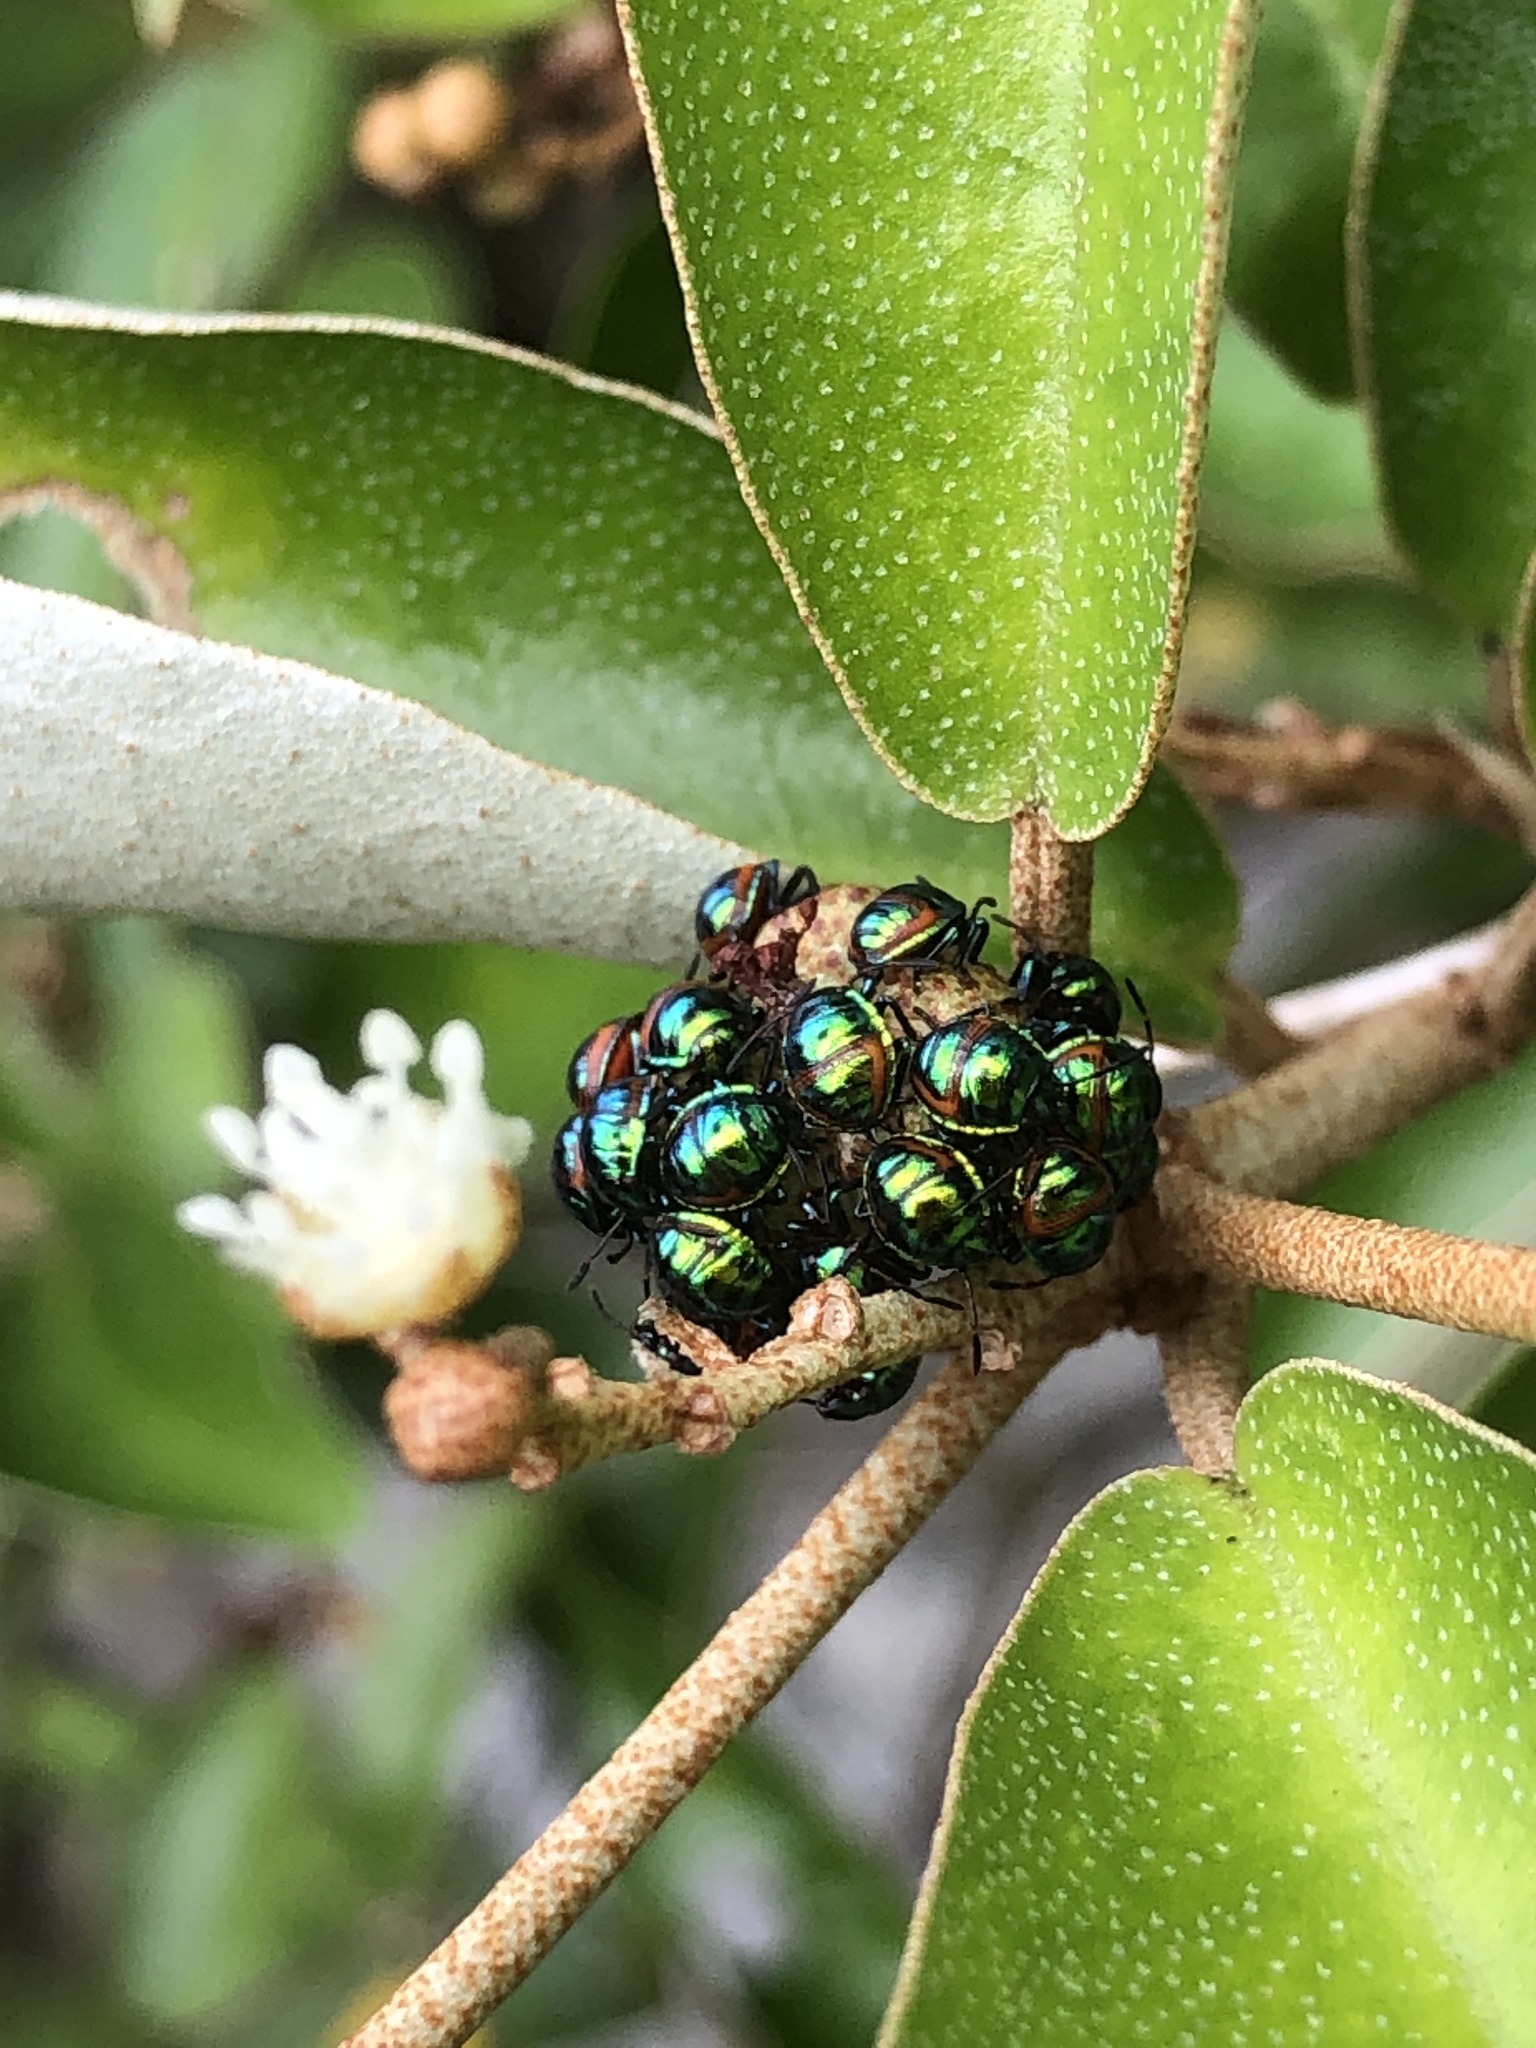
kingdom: Animalia
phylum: Arthropoda
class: Insecta
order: Hemiptera
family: Scutelleridae
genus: Calliphara
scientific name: Calliphara excellens
